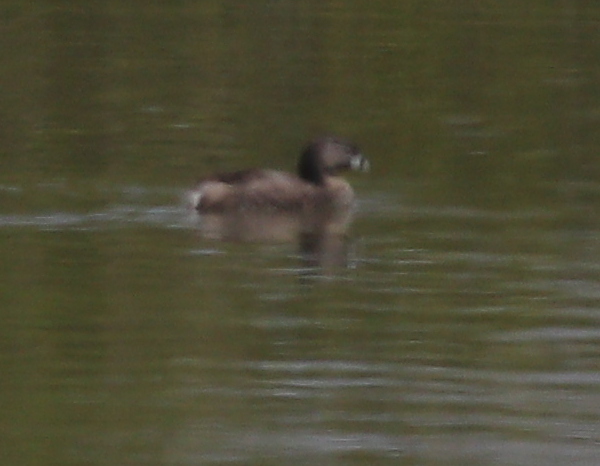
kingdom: Animalia
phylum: Chordata
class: Aves
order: Podicipediformes
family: Podicipedidae
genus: Podilymbus
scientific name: Podilymbus podiceps
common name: Pied-billed grebe
